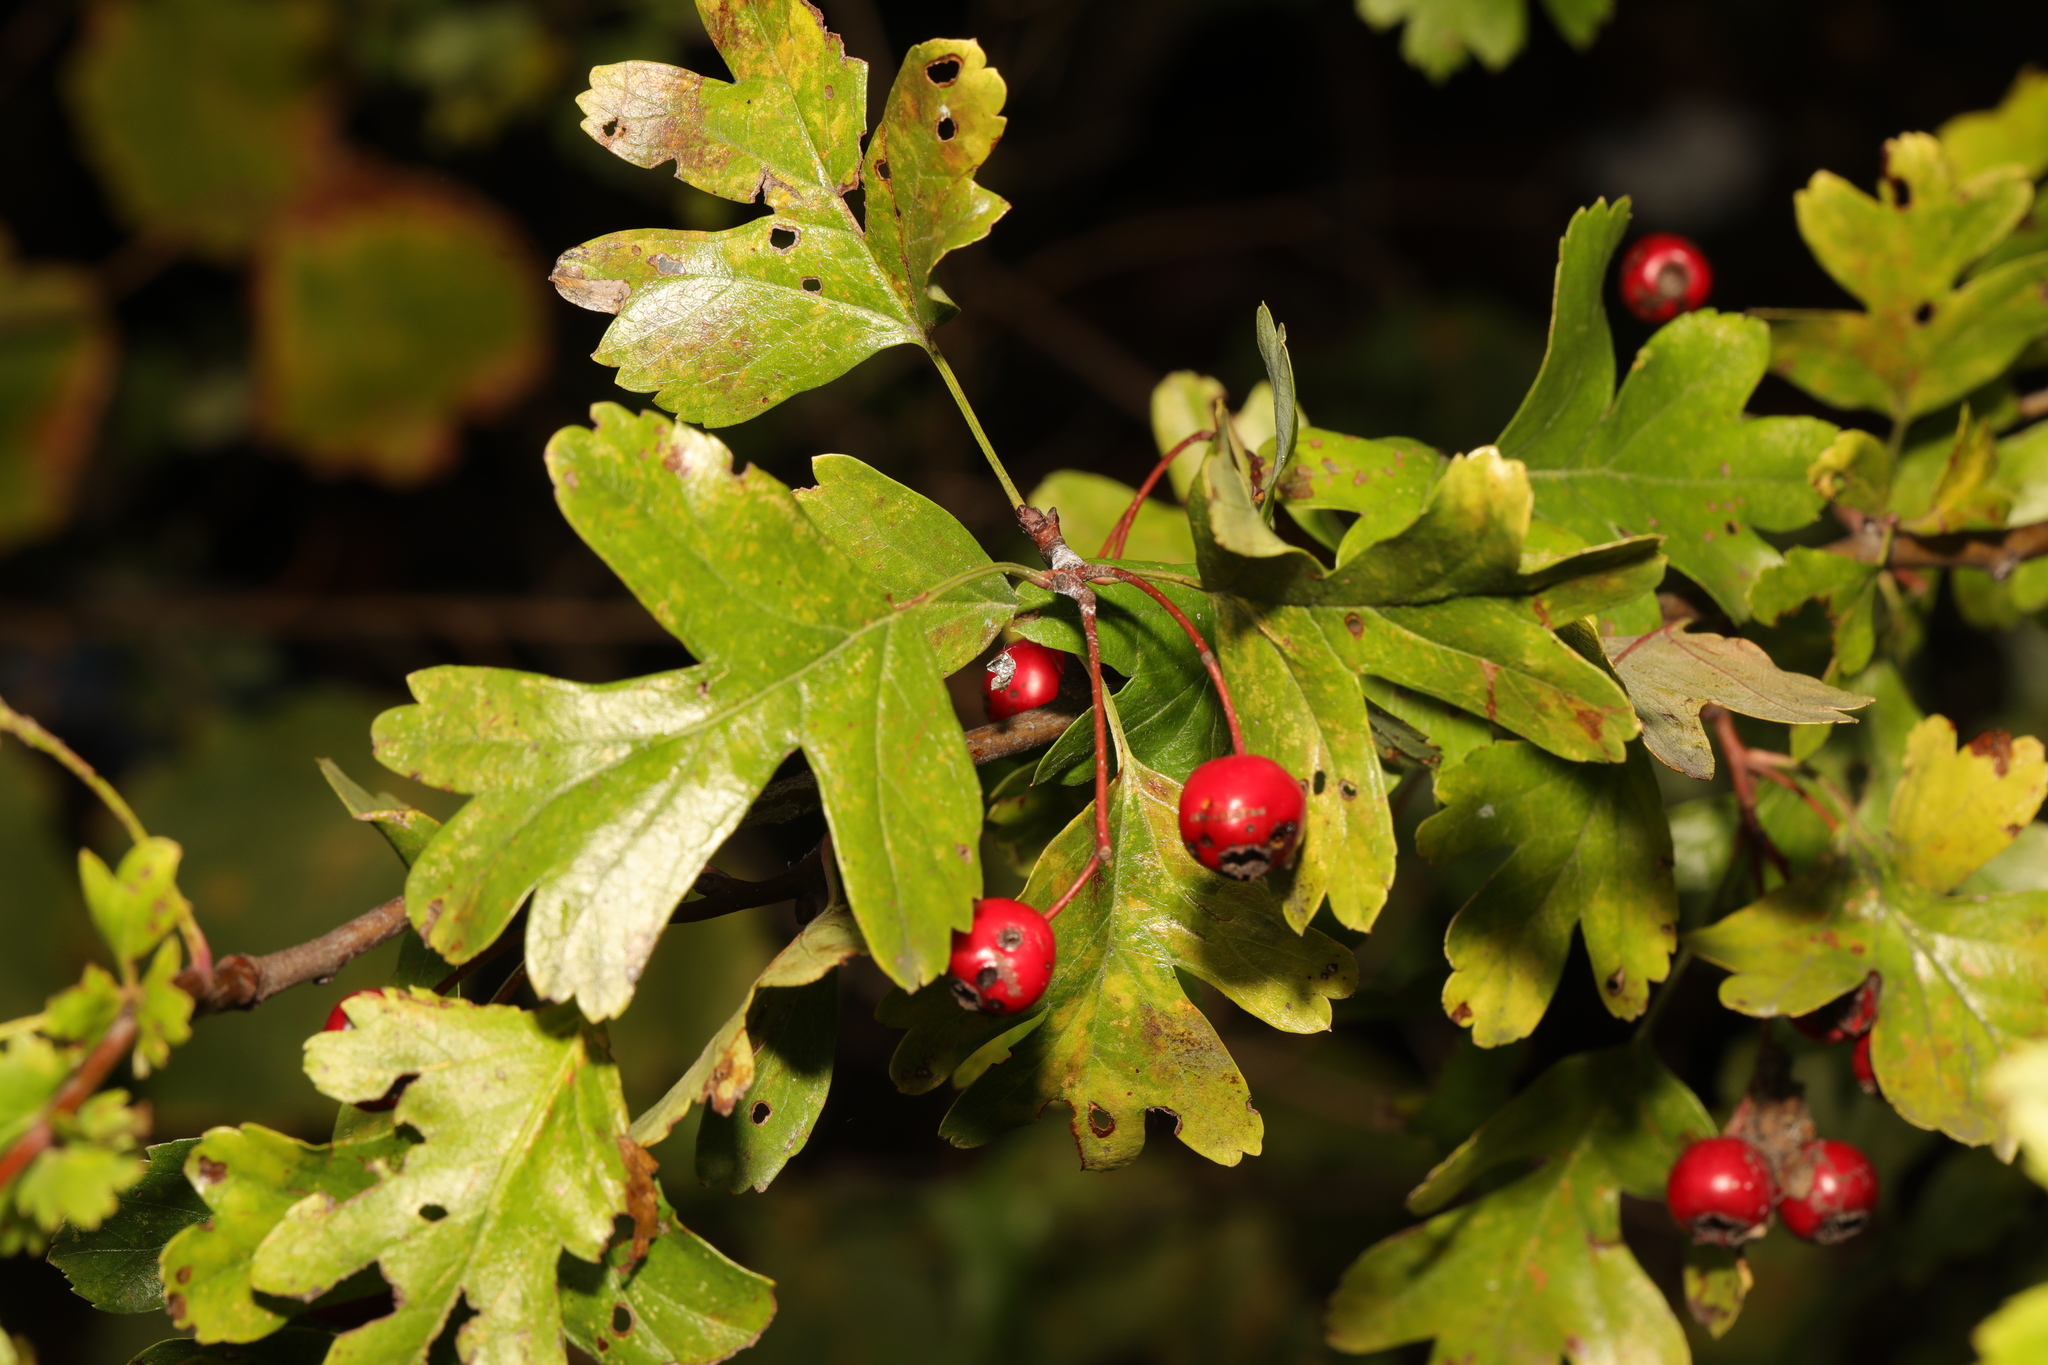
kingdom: Plantae
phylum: Tracheophyta
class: Magnoliopsida
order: Rosales
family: Rosaceae
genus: Crataegus
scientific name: Crataegus monogyna
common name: Hawthorn
